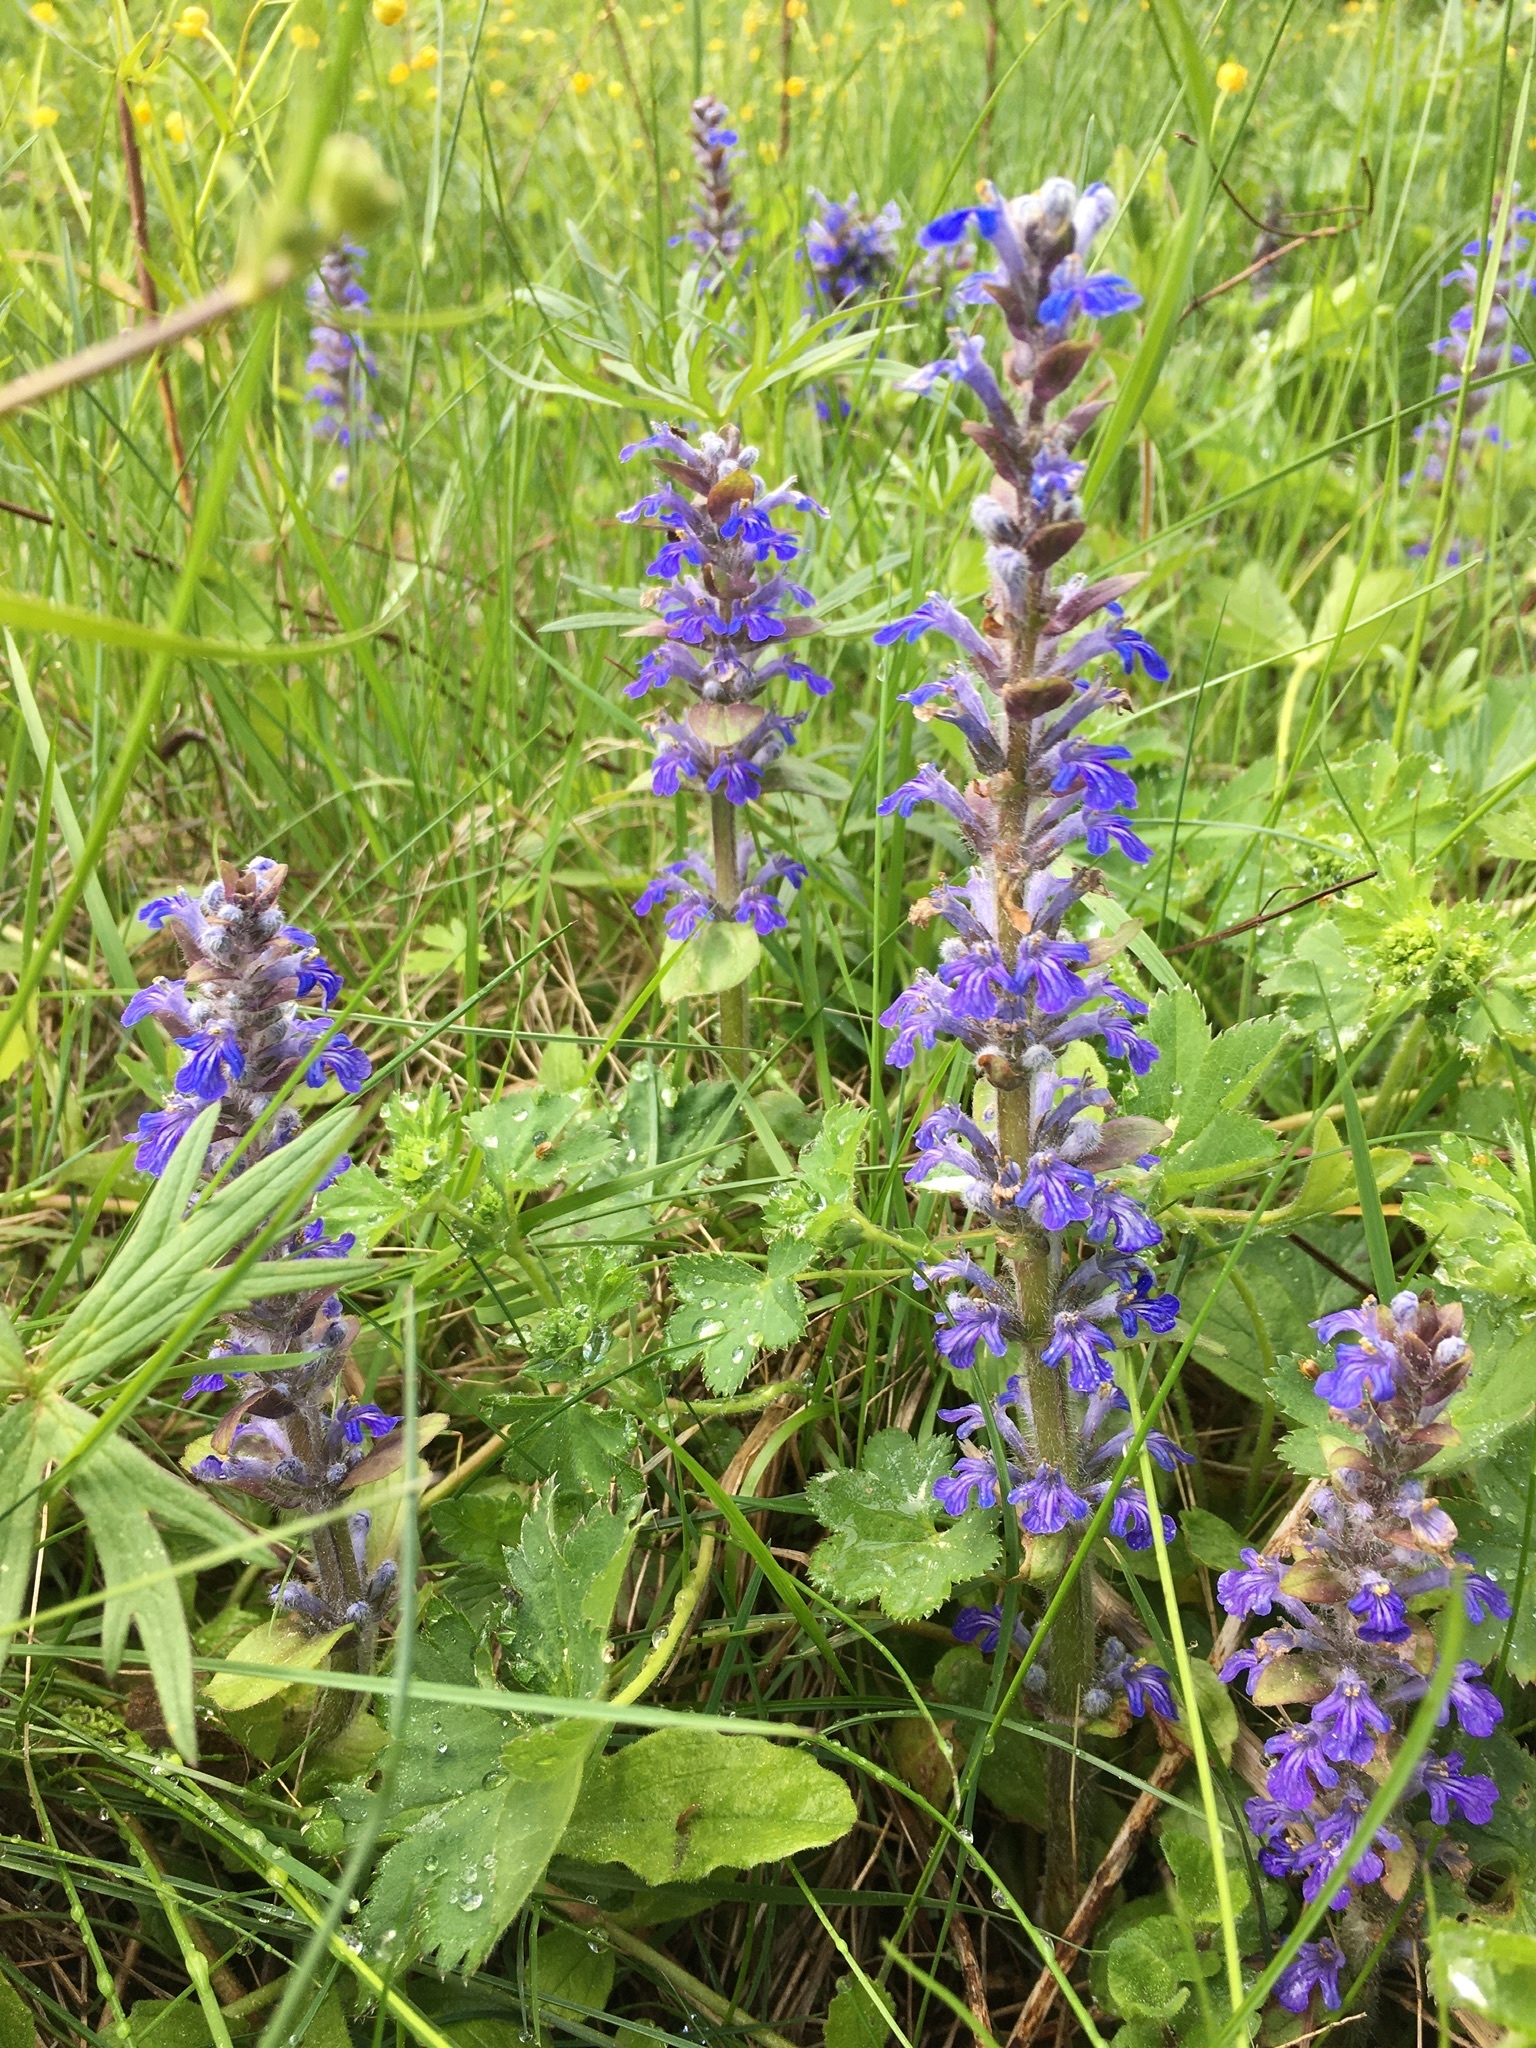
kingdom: Plantae
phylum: Tracheophyta
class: Magnoliopsida
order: Lamiales
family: Lamiaceae
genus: Ajuga
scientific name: Ajuga reptans
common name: Bugle
